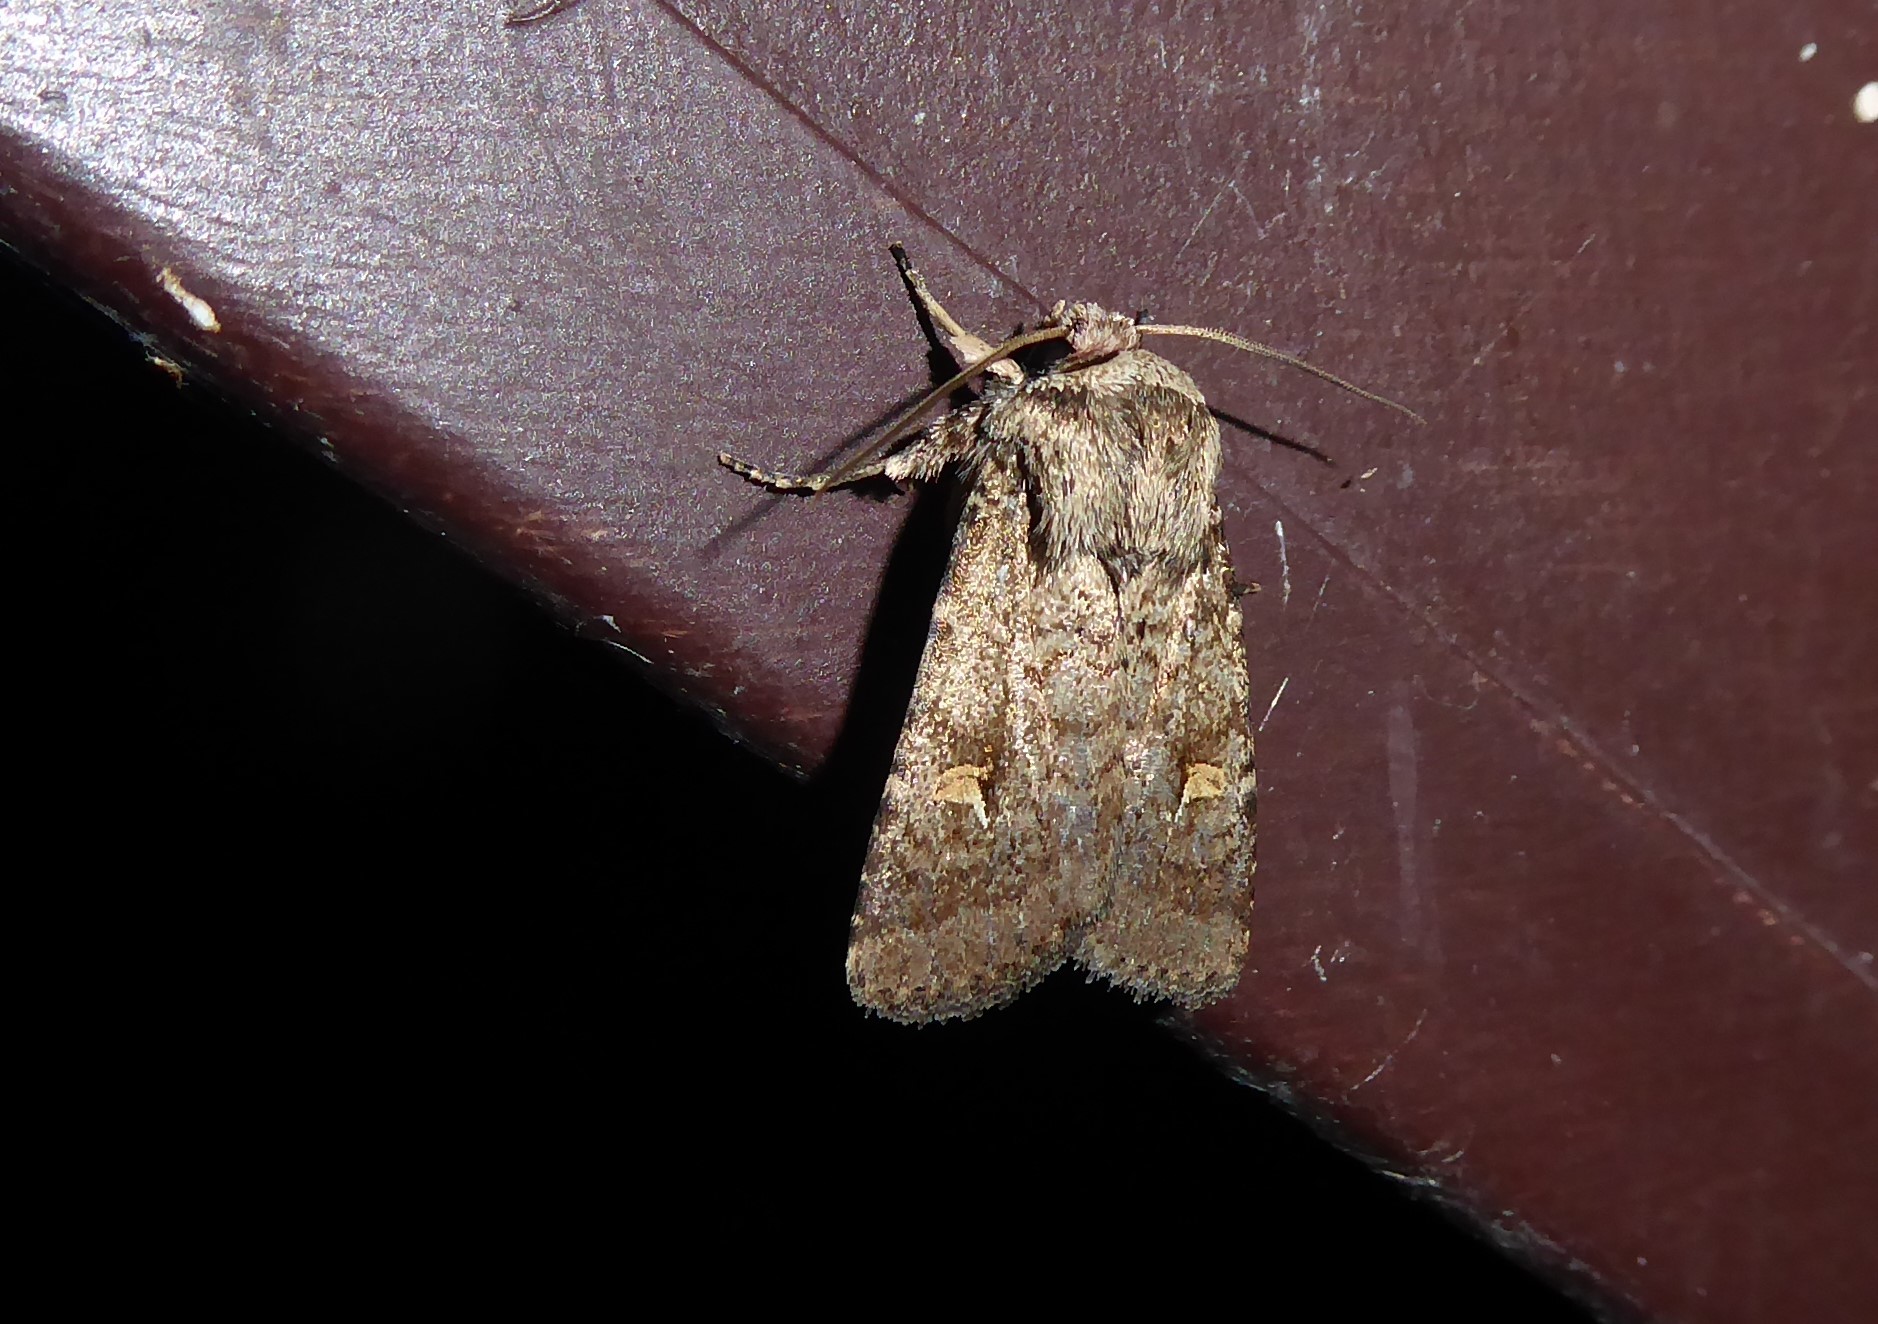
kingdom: Animalia
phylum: Arthropoda
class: Insecta
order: Lepidoptera
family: Noctuidae
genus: Proteuxoa
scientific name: Proteuxoa tetronycha
